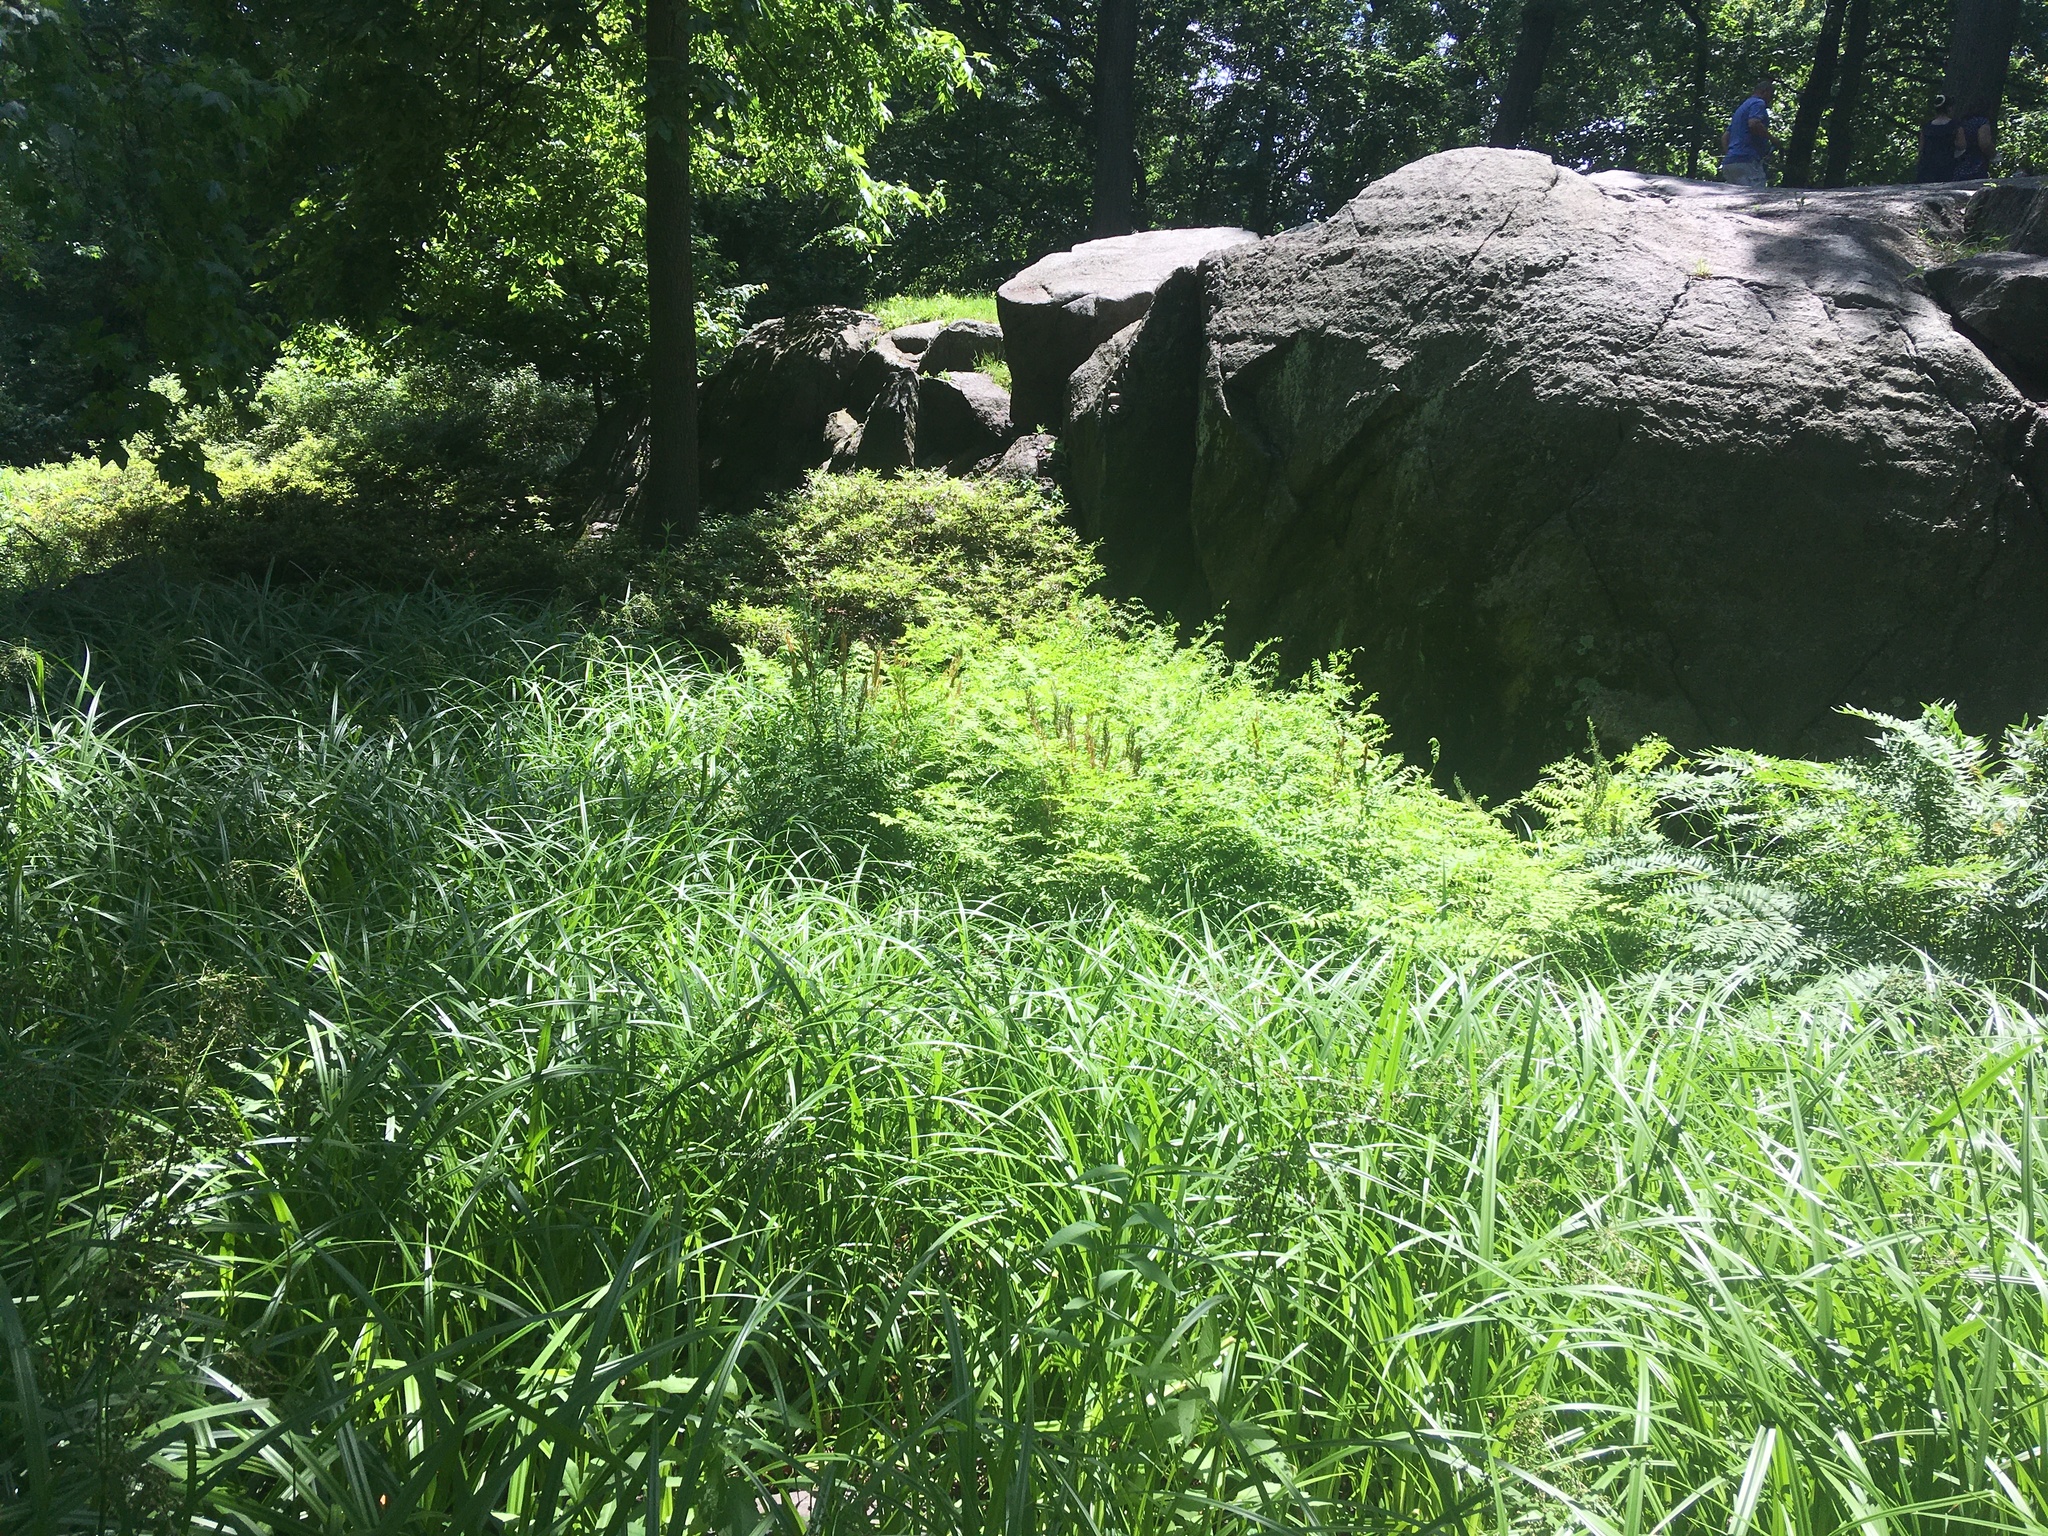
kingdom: Plantae
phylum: Tracheophyta
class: Polypodiopsida
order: Osmundales
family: Osmundaceae
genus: Osmunda
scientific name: Osmunda spectabilis
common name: American royal fern
